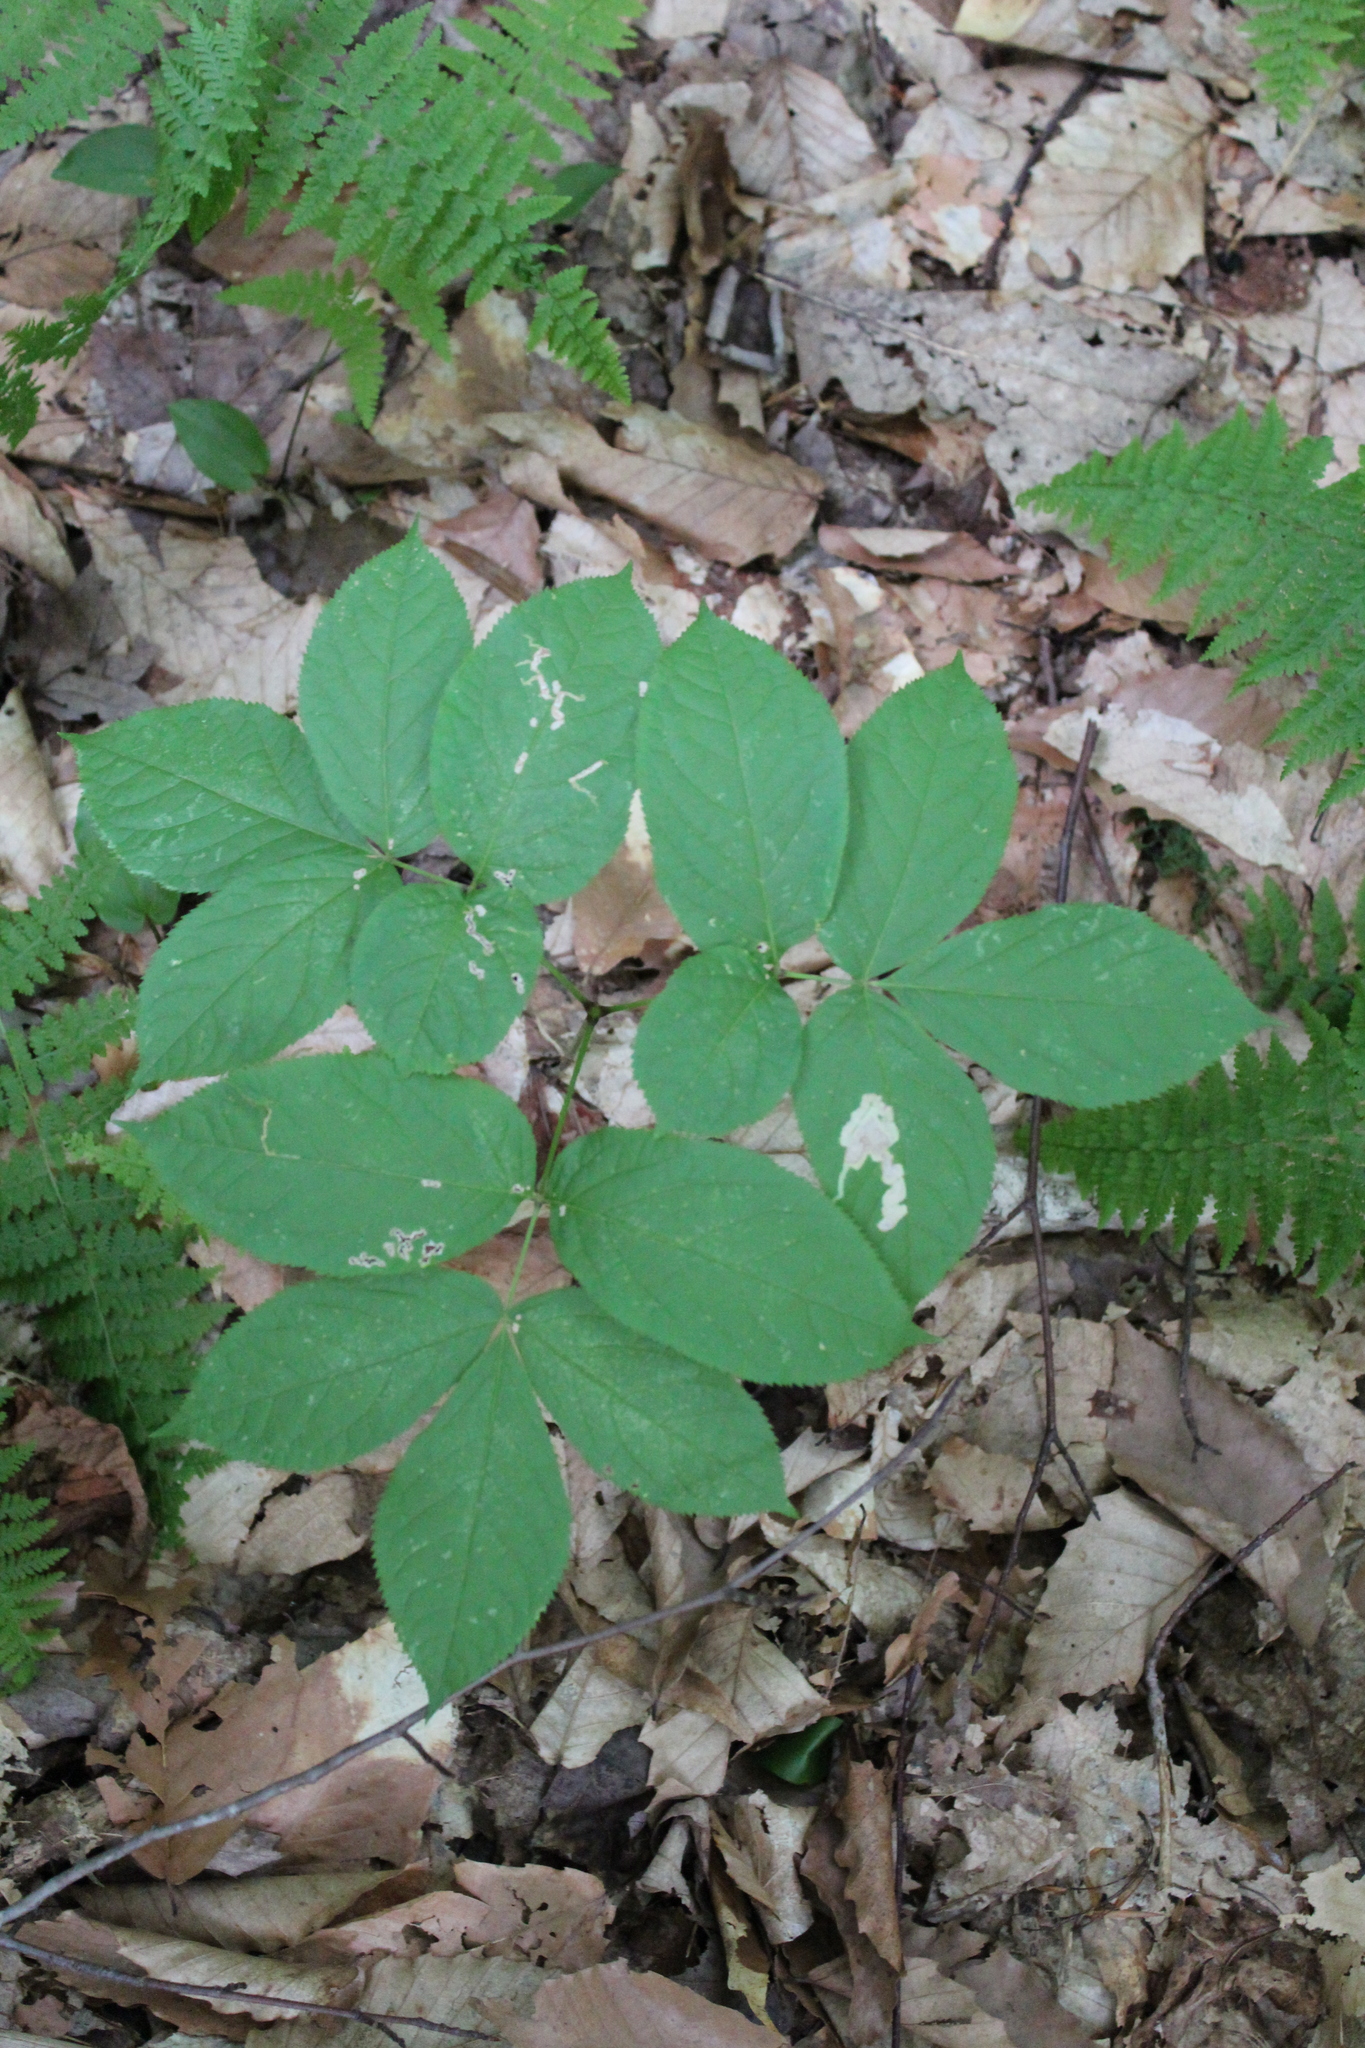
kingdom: Plantae
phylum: Tracheophyta
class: Magnoliopsida
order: Apiales
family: Araliaceae
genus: Aralia
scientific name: Aralia nudicaulis
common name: Wild sarsaparilla
